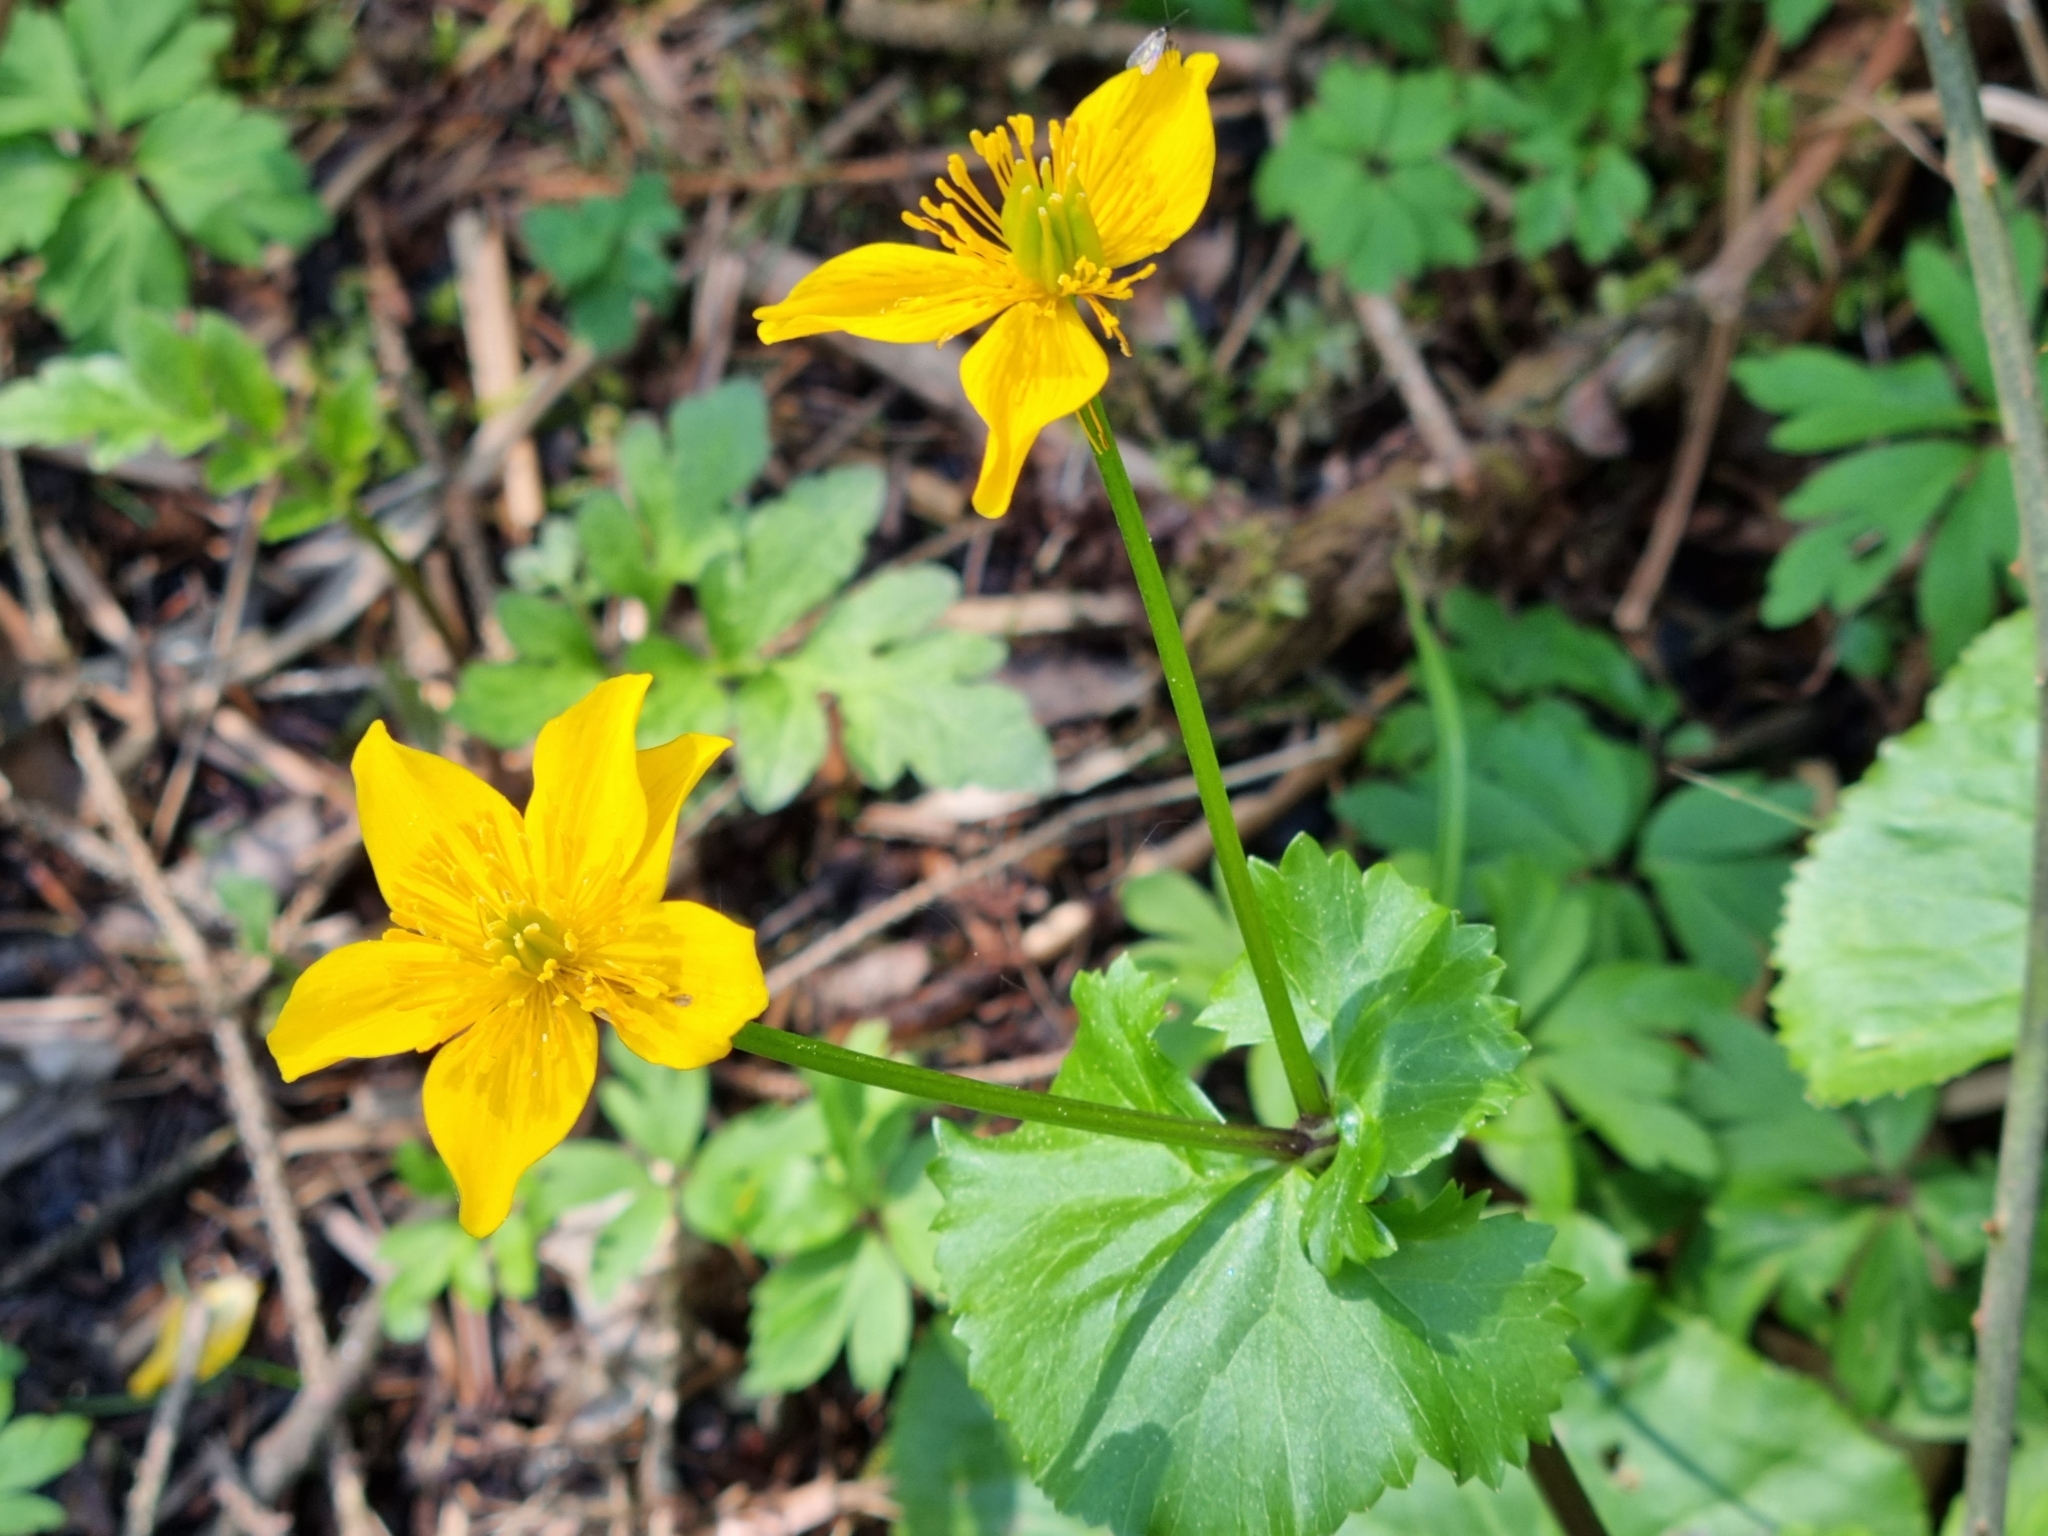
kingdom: Plantae
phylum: Tracheophyta
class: Magnoliopsida
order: Ranunculales
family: Ranunculaceae
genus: Caltha
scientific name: Caltha palustris
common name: Marsh marigold
